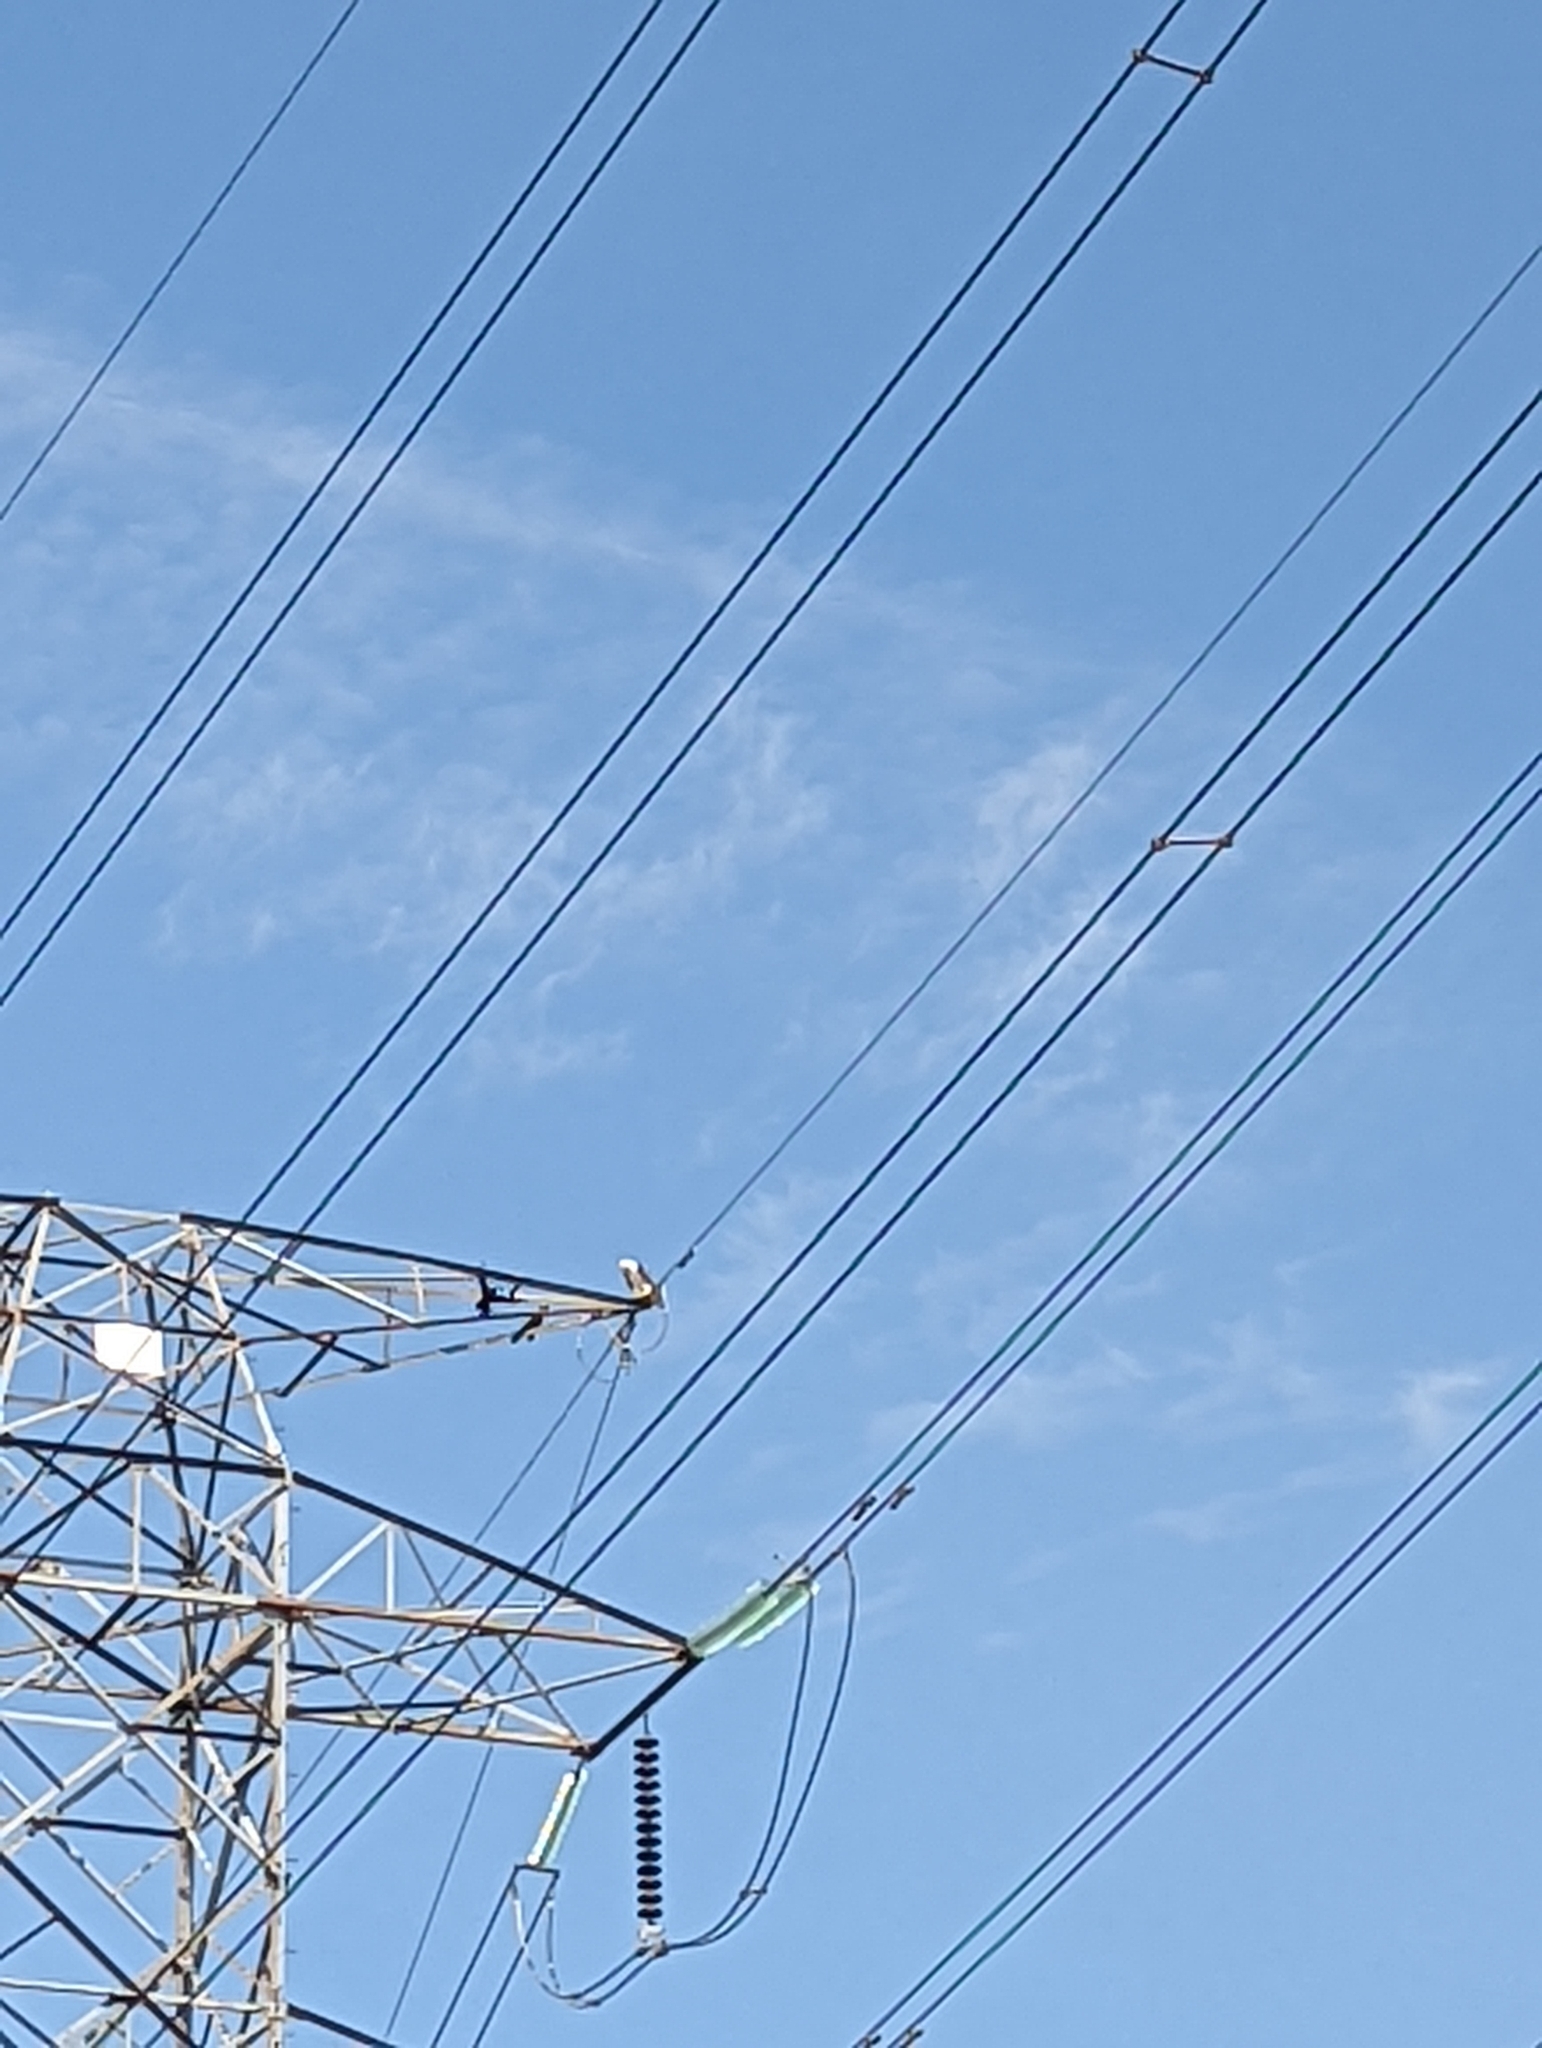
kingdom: Animalia
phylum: Chordata
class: Aves
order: Accipitriformes
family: Accipitridae
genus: Haliastur
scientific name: Haliastur indus
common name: Brahminy kite
